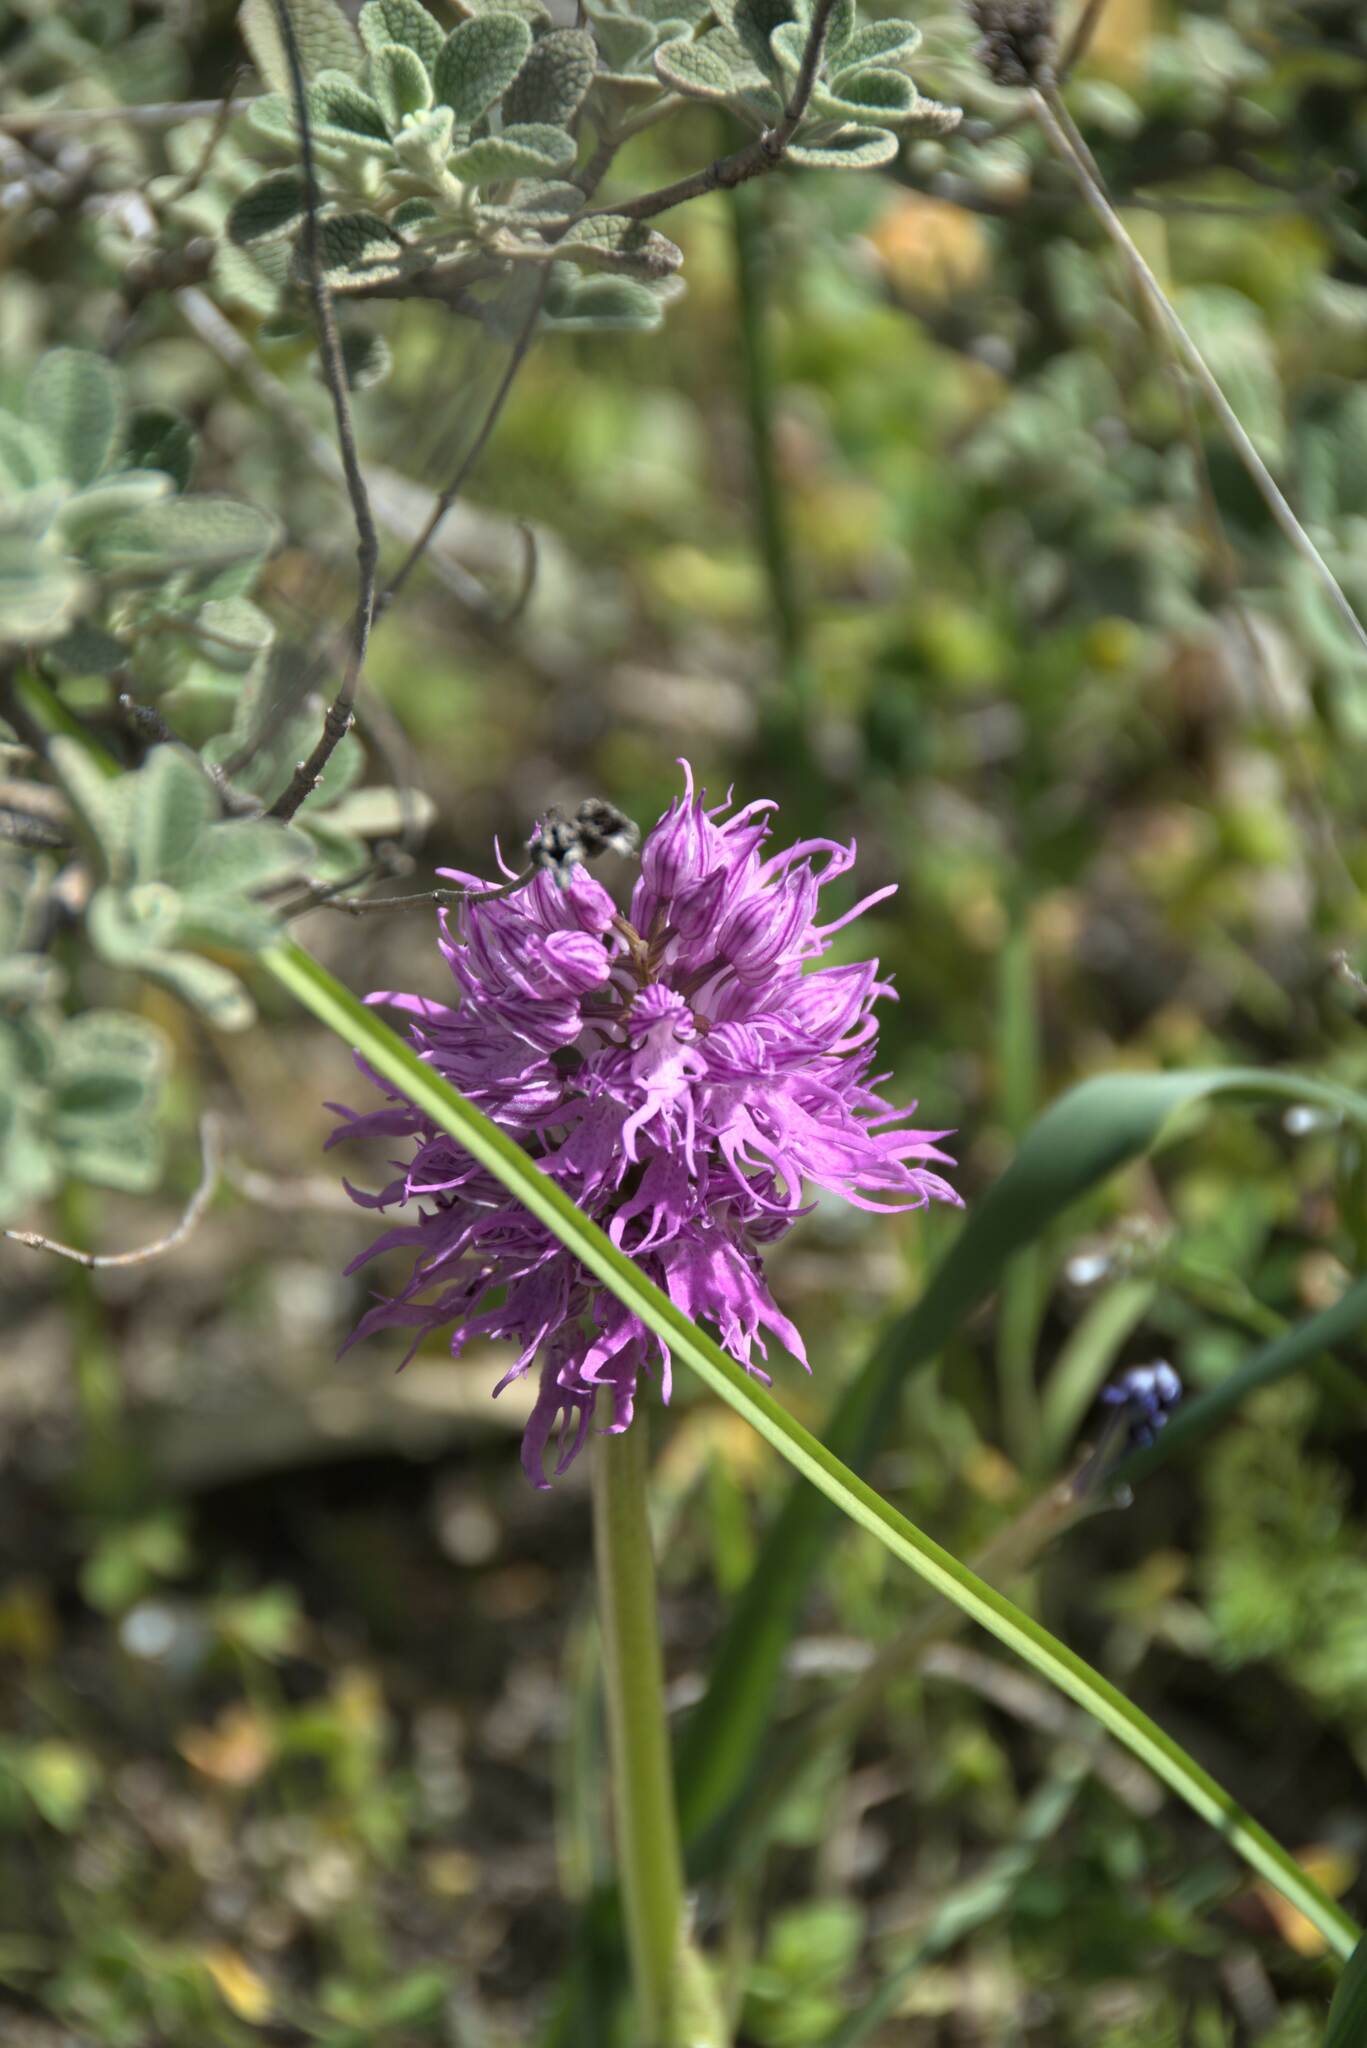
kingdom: Plantae
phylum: Tracheophyta
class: Liliopsida
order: Asparagales
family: Orchidaceae
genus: Orchis
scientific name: Orchis italica
